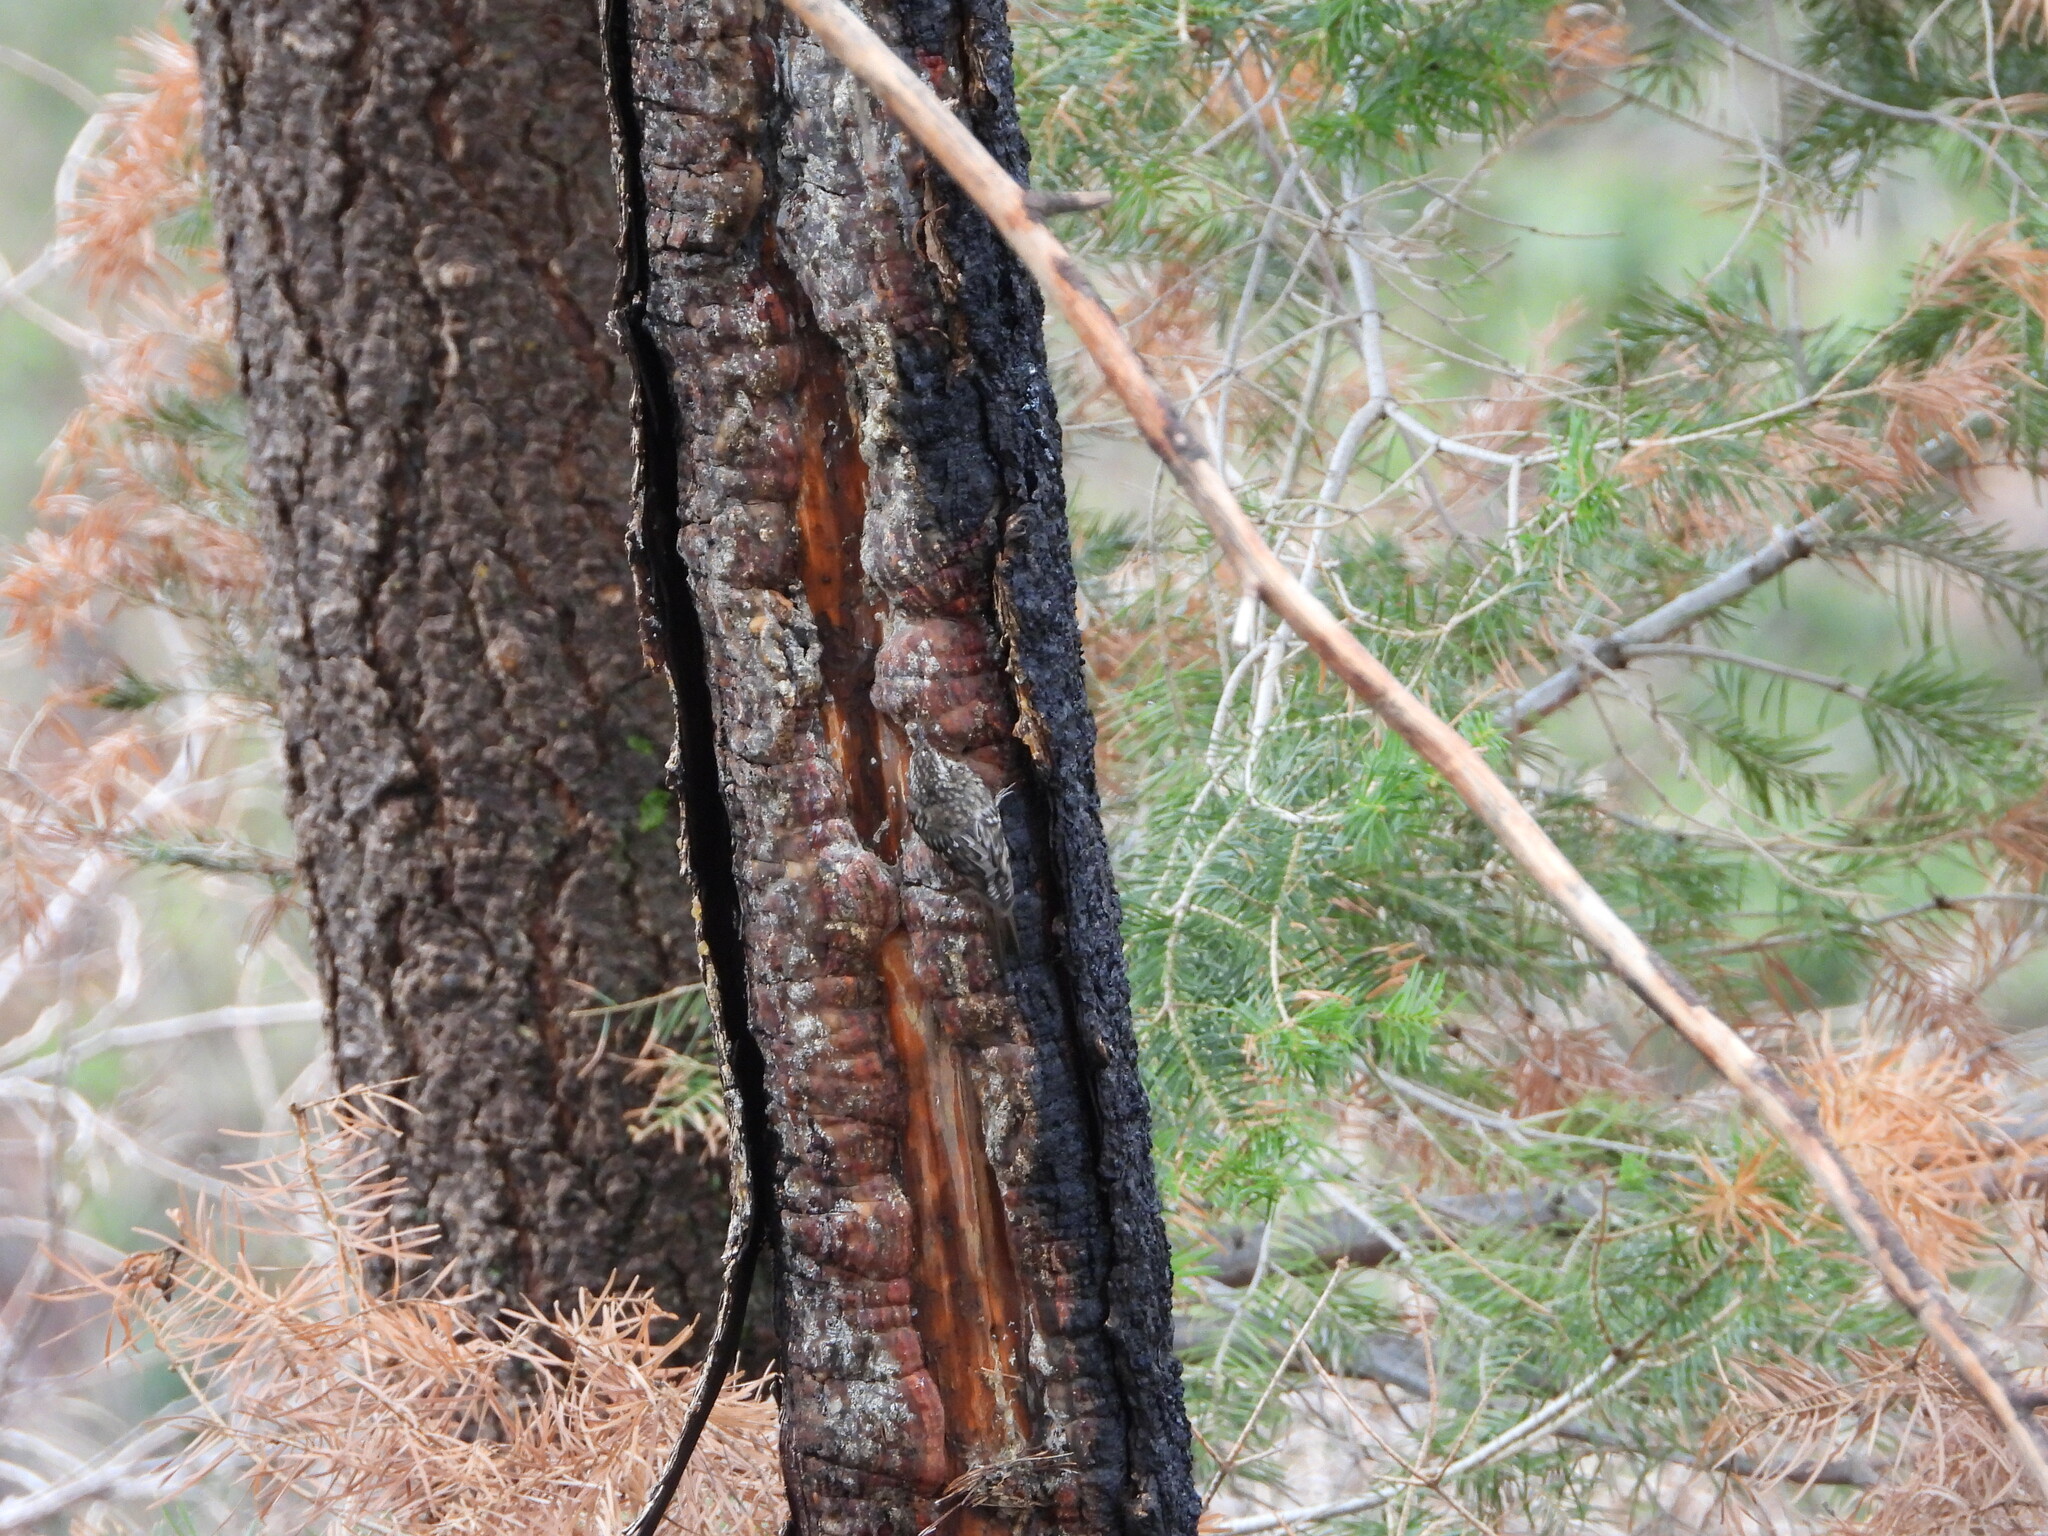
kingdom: Animalia
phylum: Chordata
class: Aves
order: Passeriformes
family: Certhiidae
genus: Certhia
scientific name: Certhia americana
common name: Brown creeper
